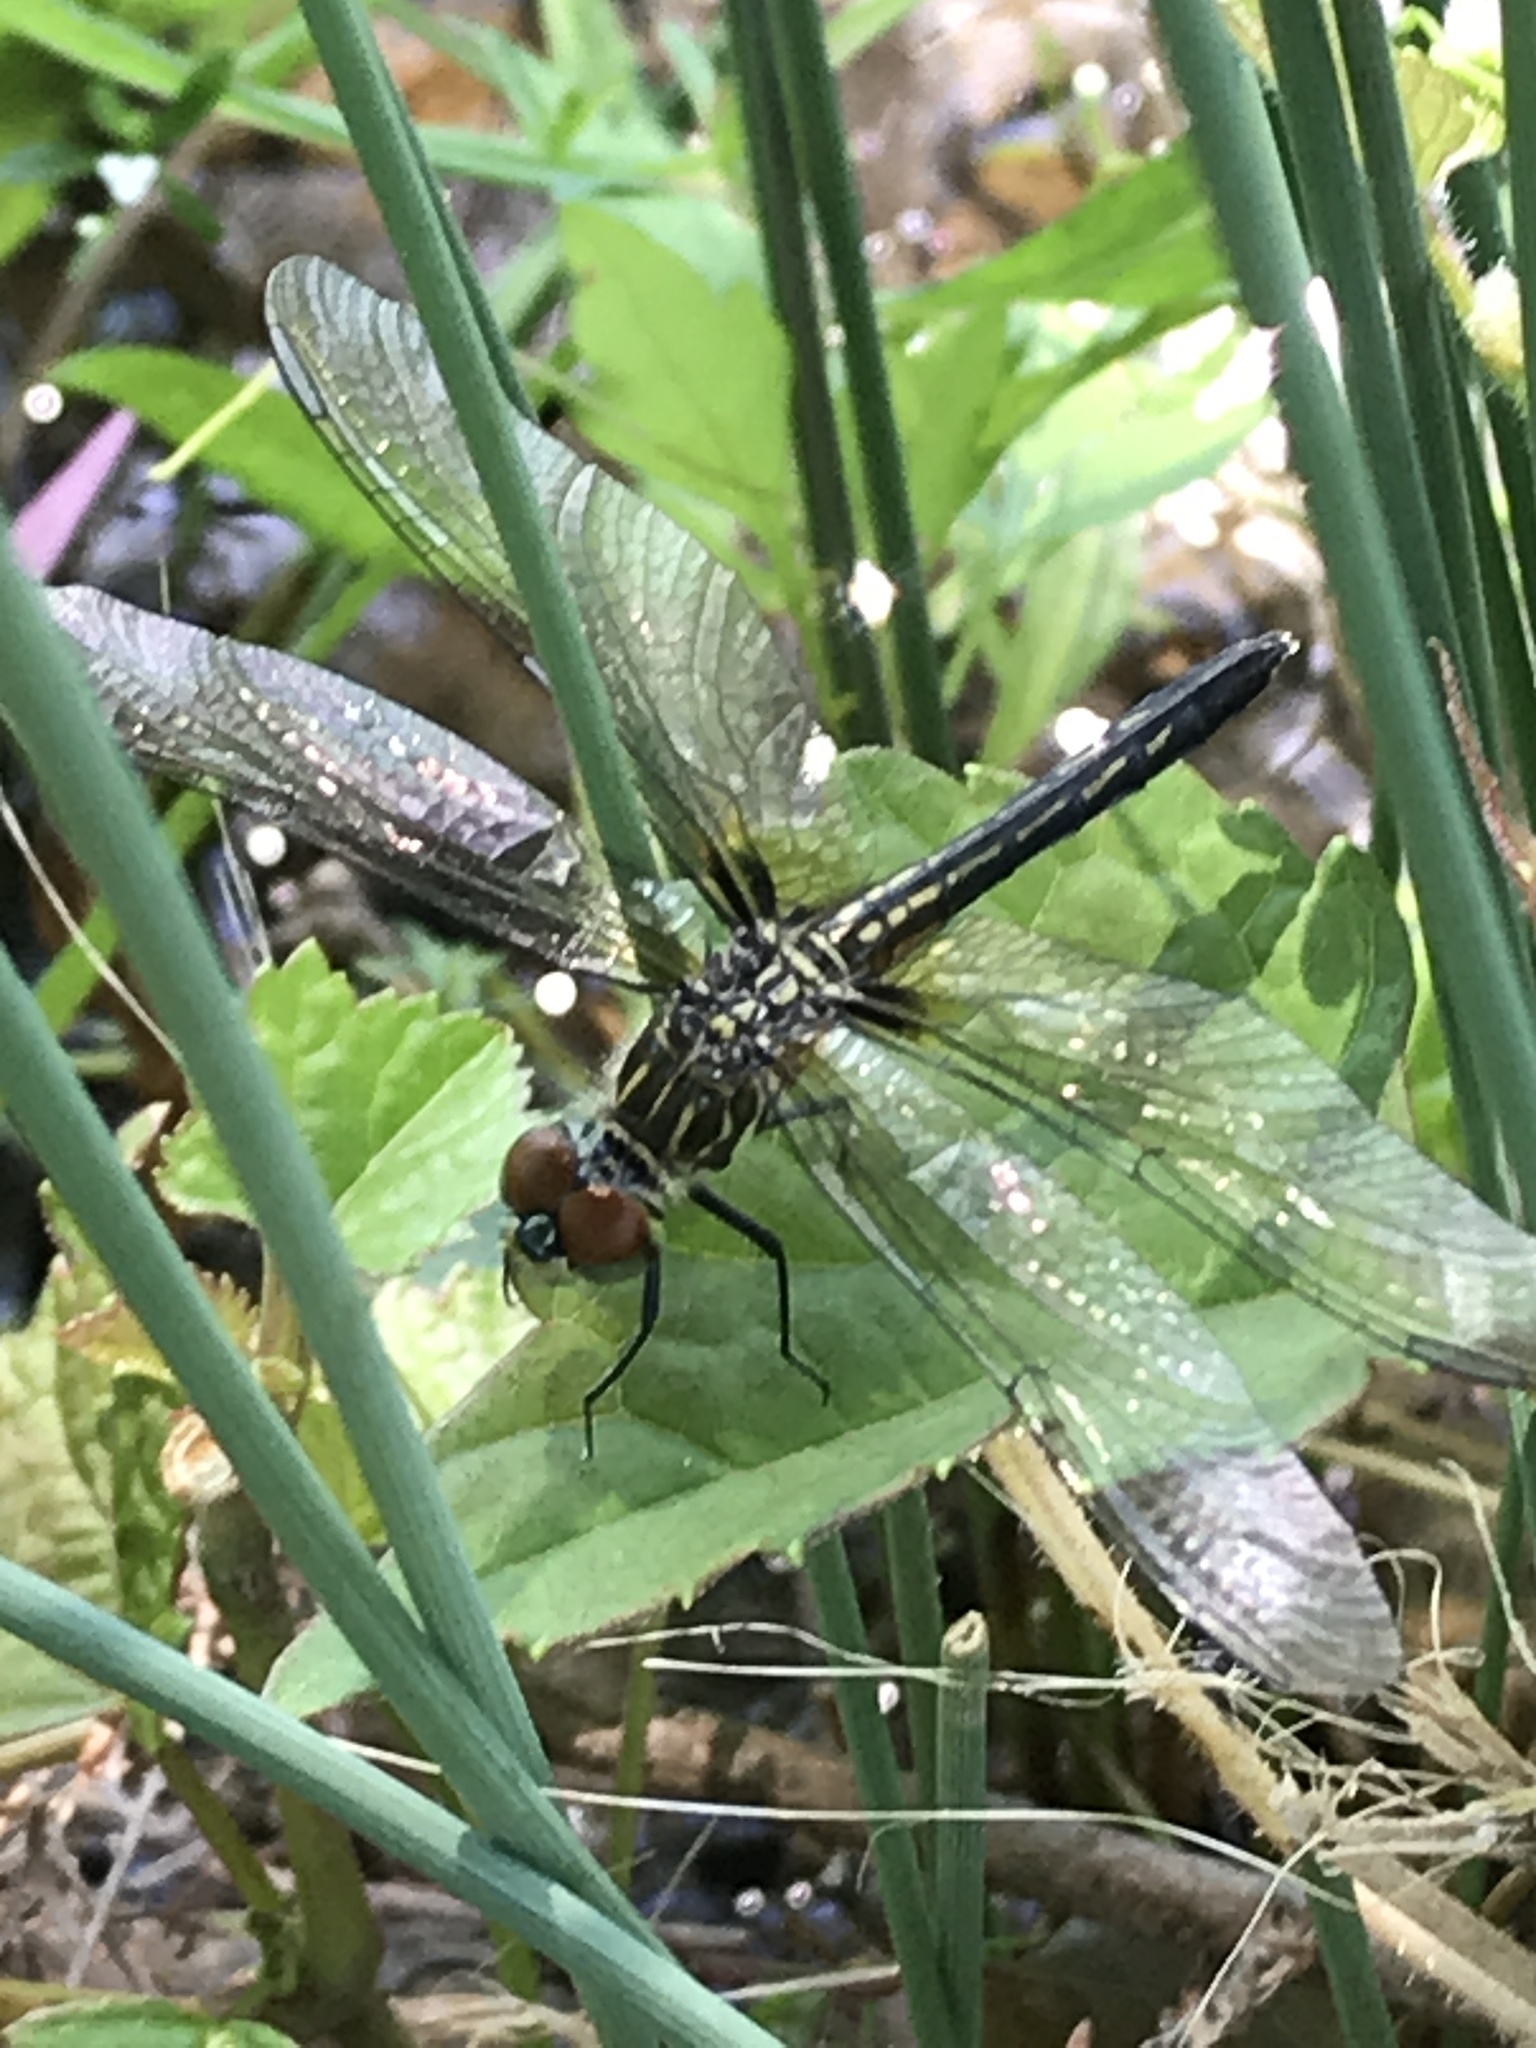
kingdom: Animalia
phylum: Arthropoda
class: Insecta
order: Odonata
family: Libellulidae
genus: Pachydiplax
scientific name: Pachydiplax longipennis
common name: Blue dasher
